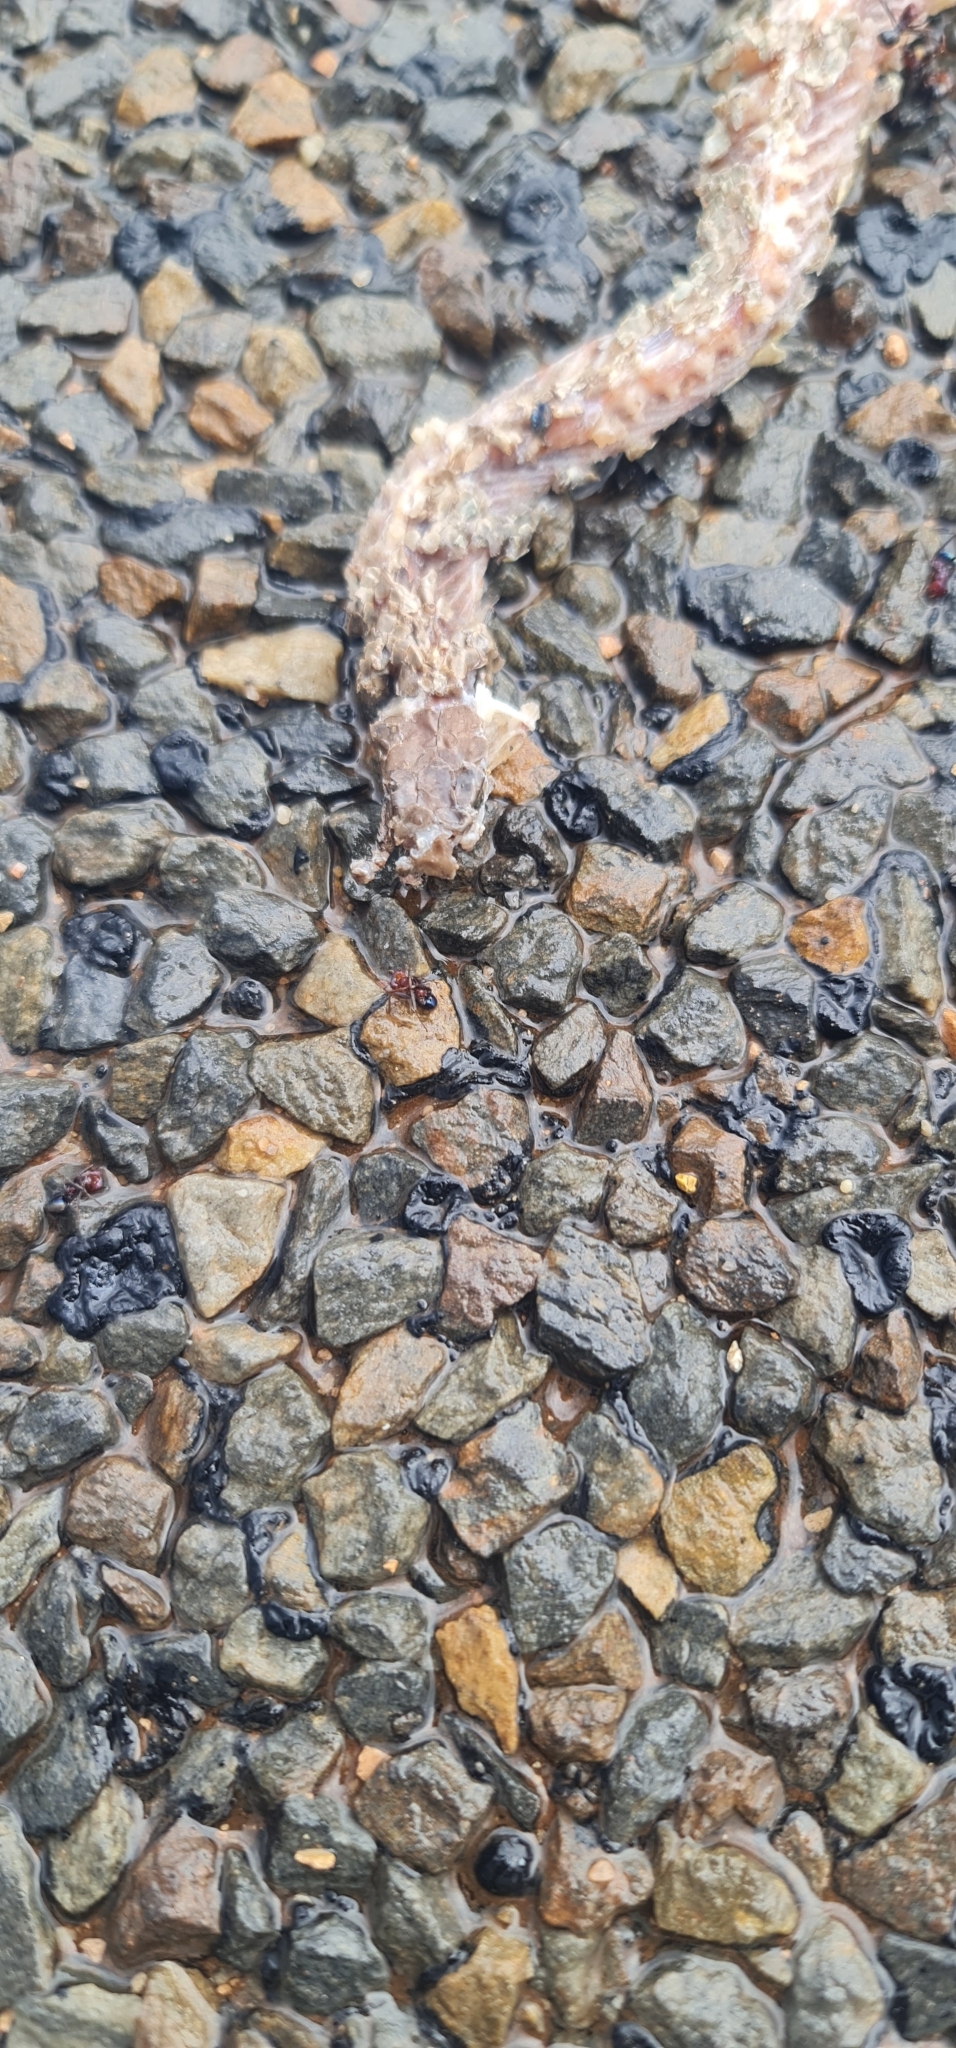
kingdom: Animalia
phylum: Chordata
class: Squamata
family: Elapidae
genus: Pseudonaja
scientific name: Pseudonaja textilis
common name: Eastern brown snake
